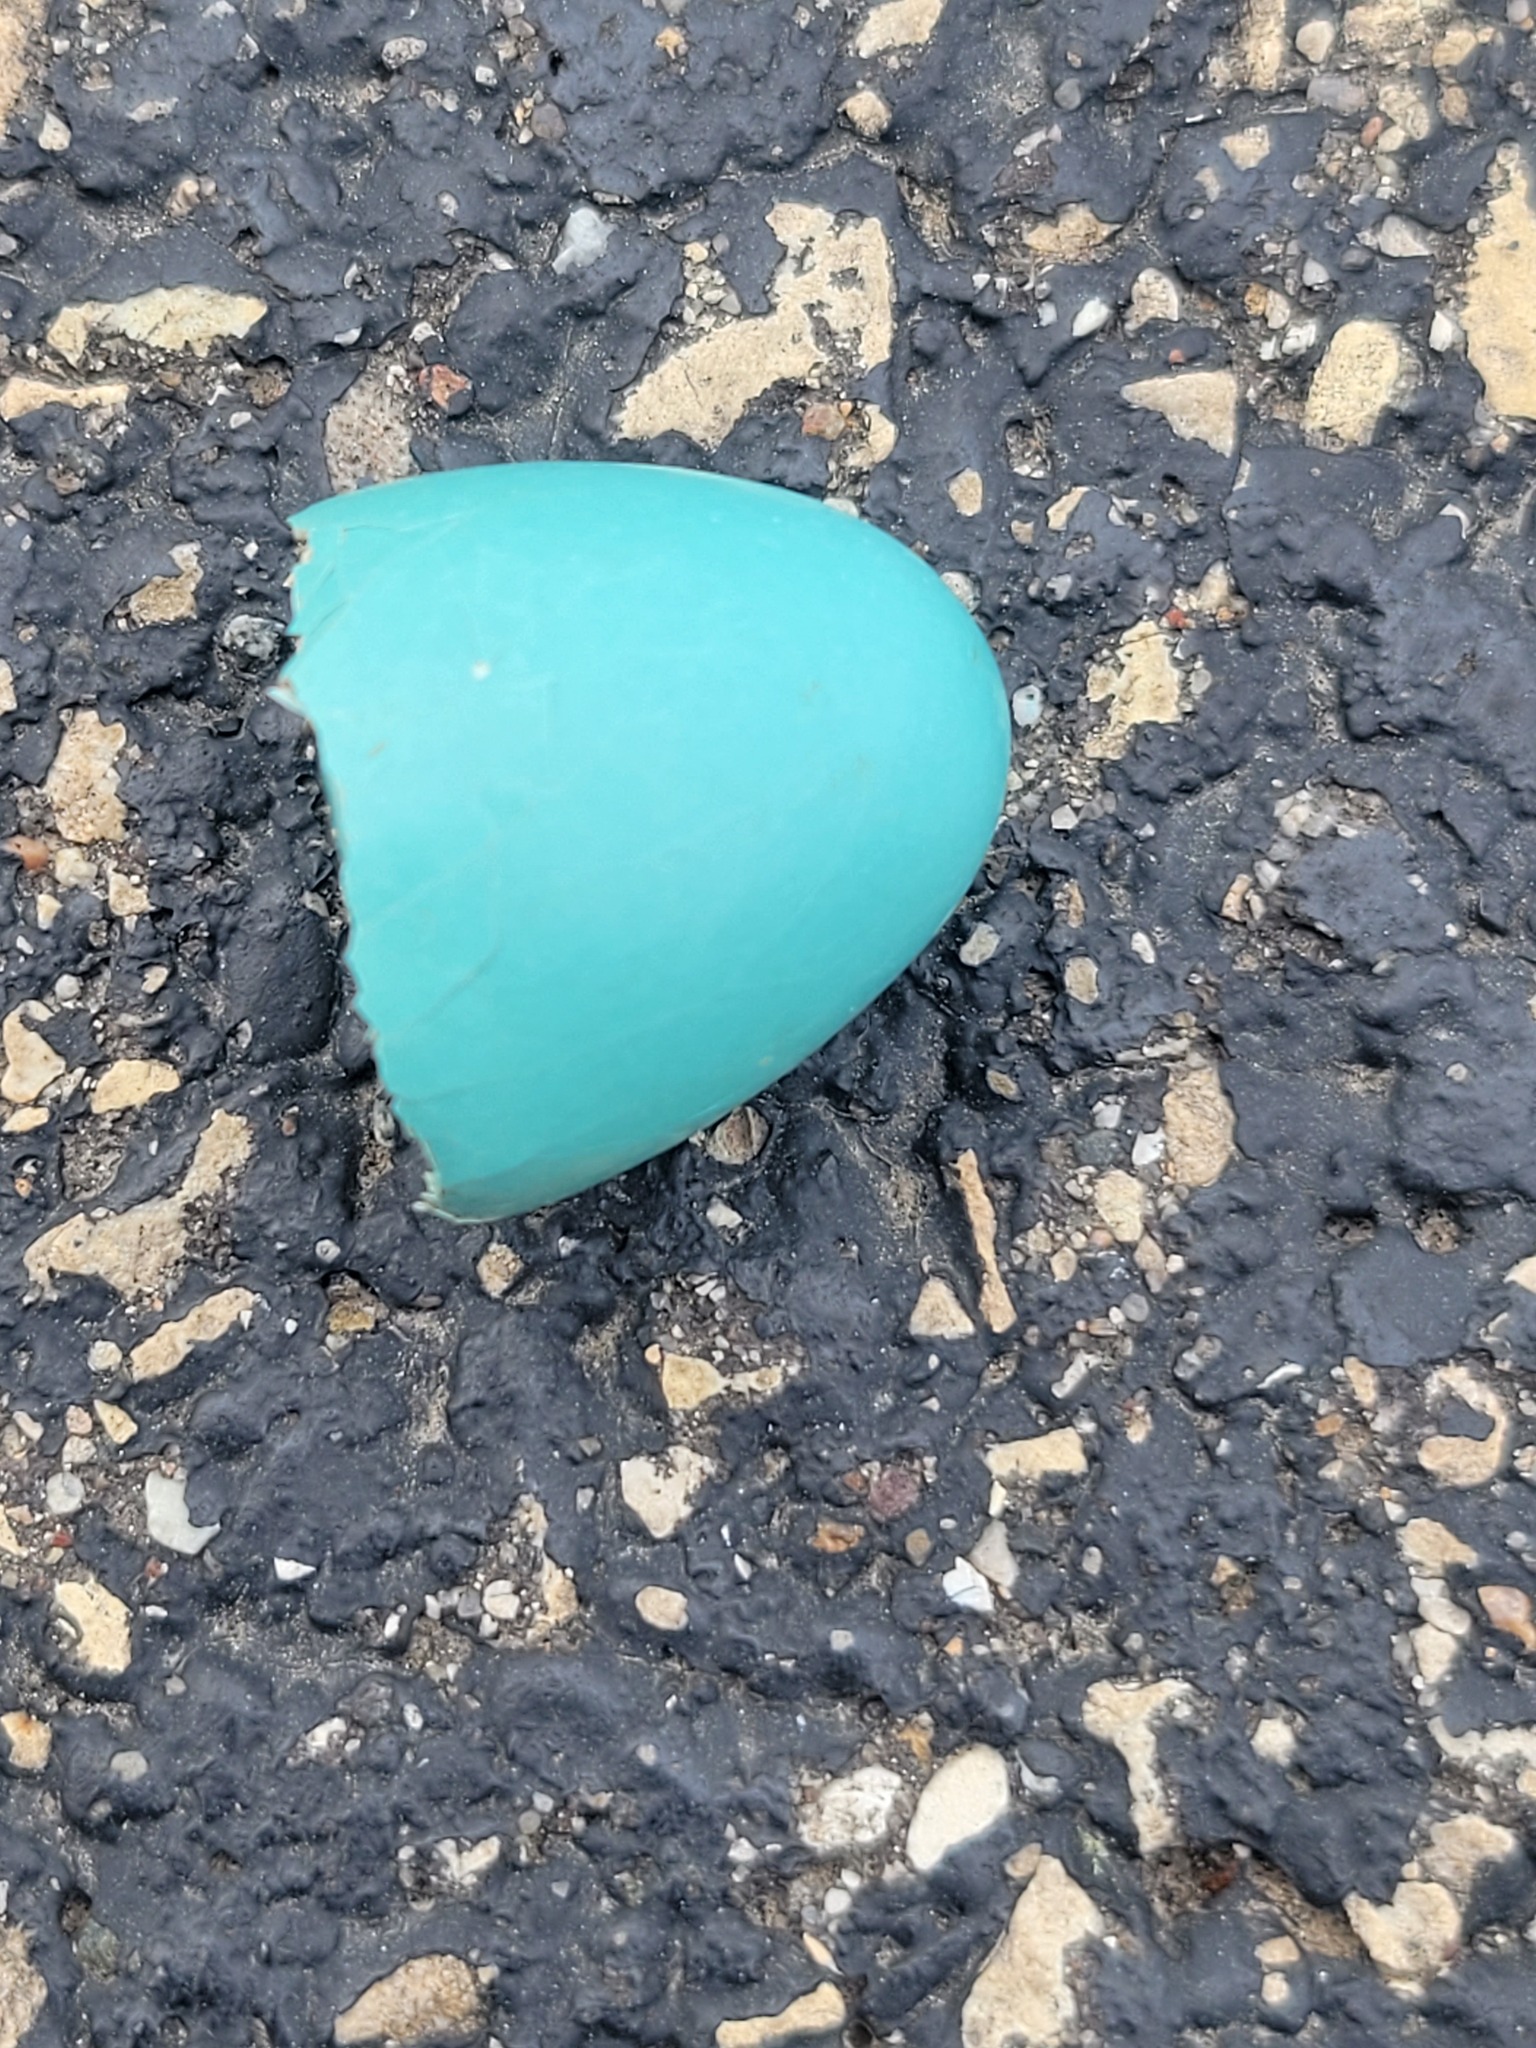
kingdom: Animalia
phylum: Chordata
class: Aves
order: Passeriformes
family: Turdidae
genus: Turdus
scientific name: Turdus migratorius
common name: American robin
